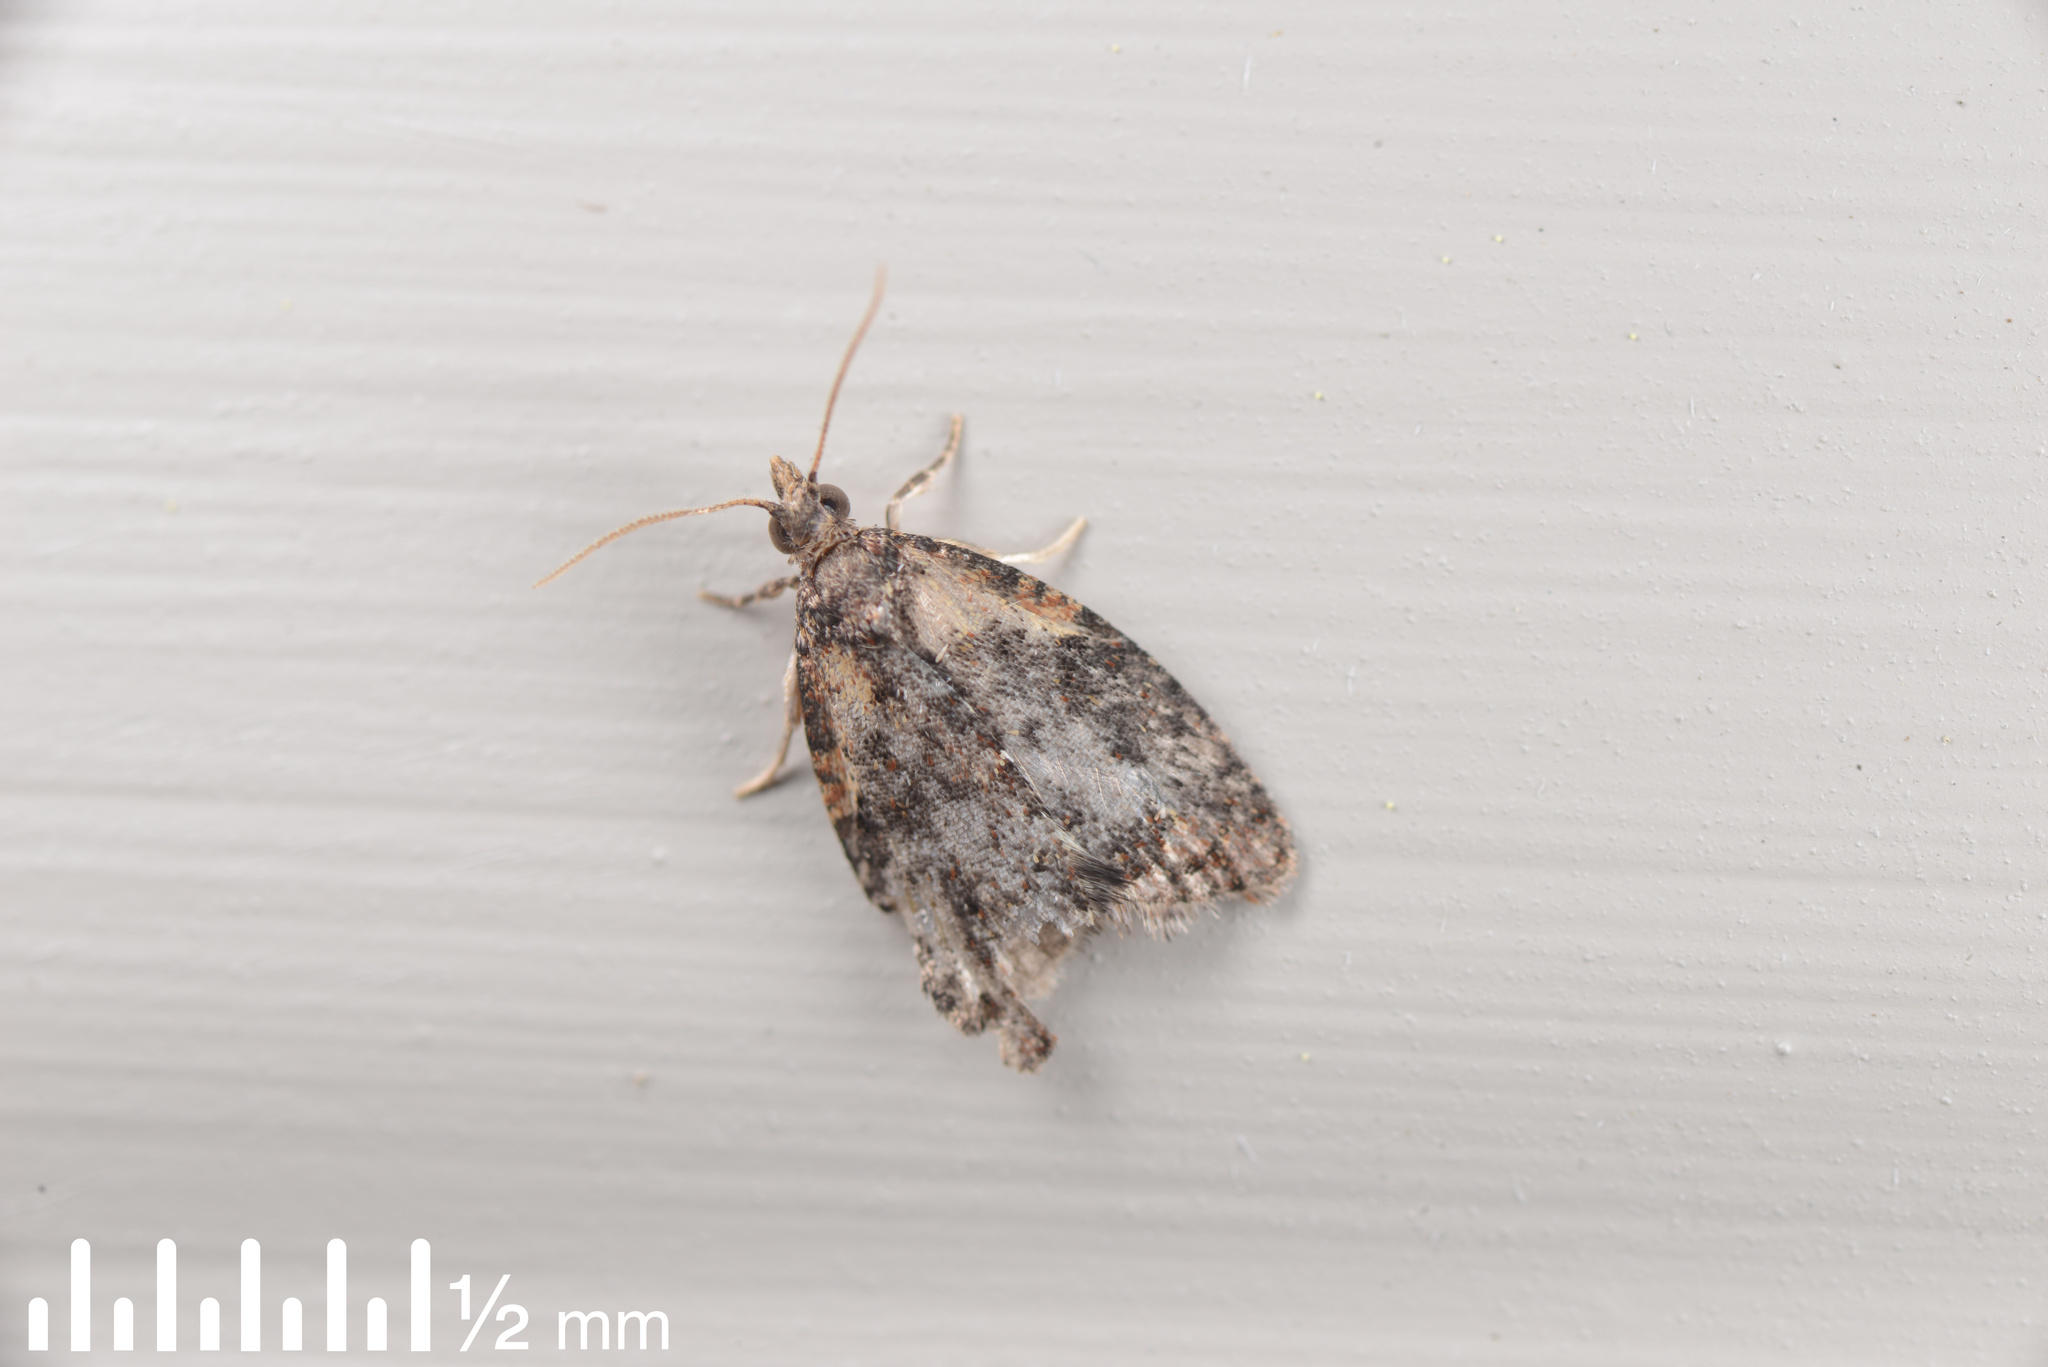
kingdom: Animalia
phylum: Arthropoda
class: Insecta
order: Lepidoptera
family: Tortricidae
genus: Capua
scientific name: Capua intractana
